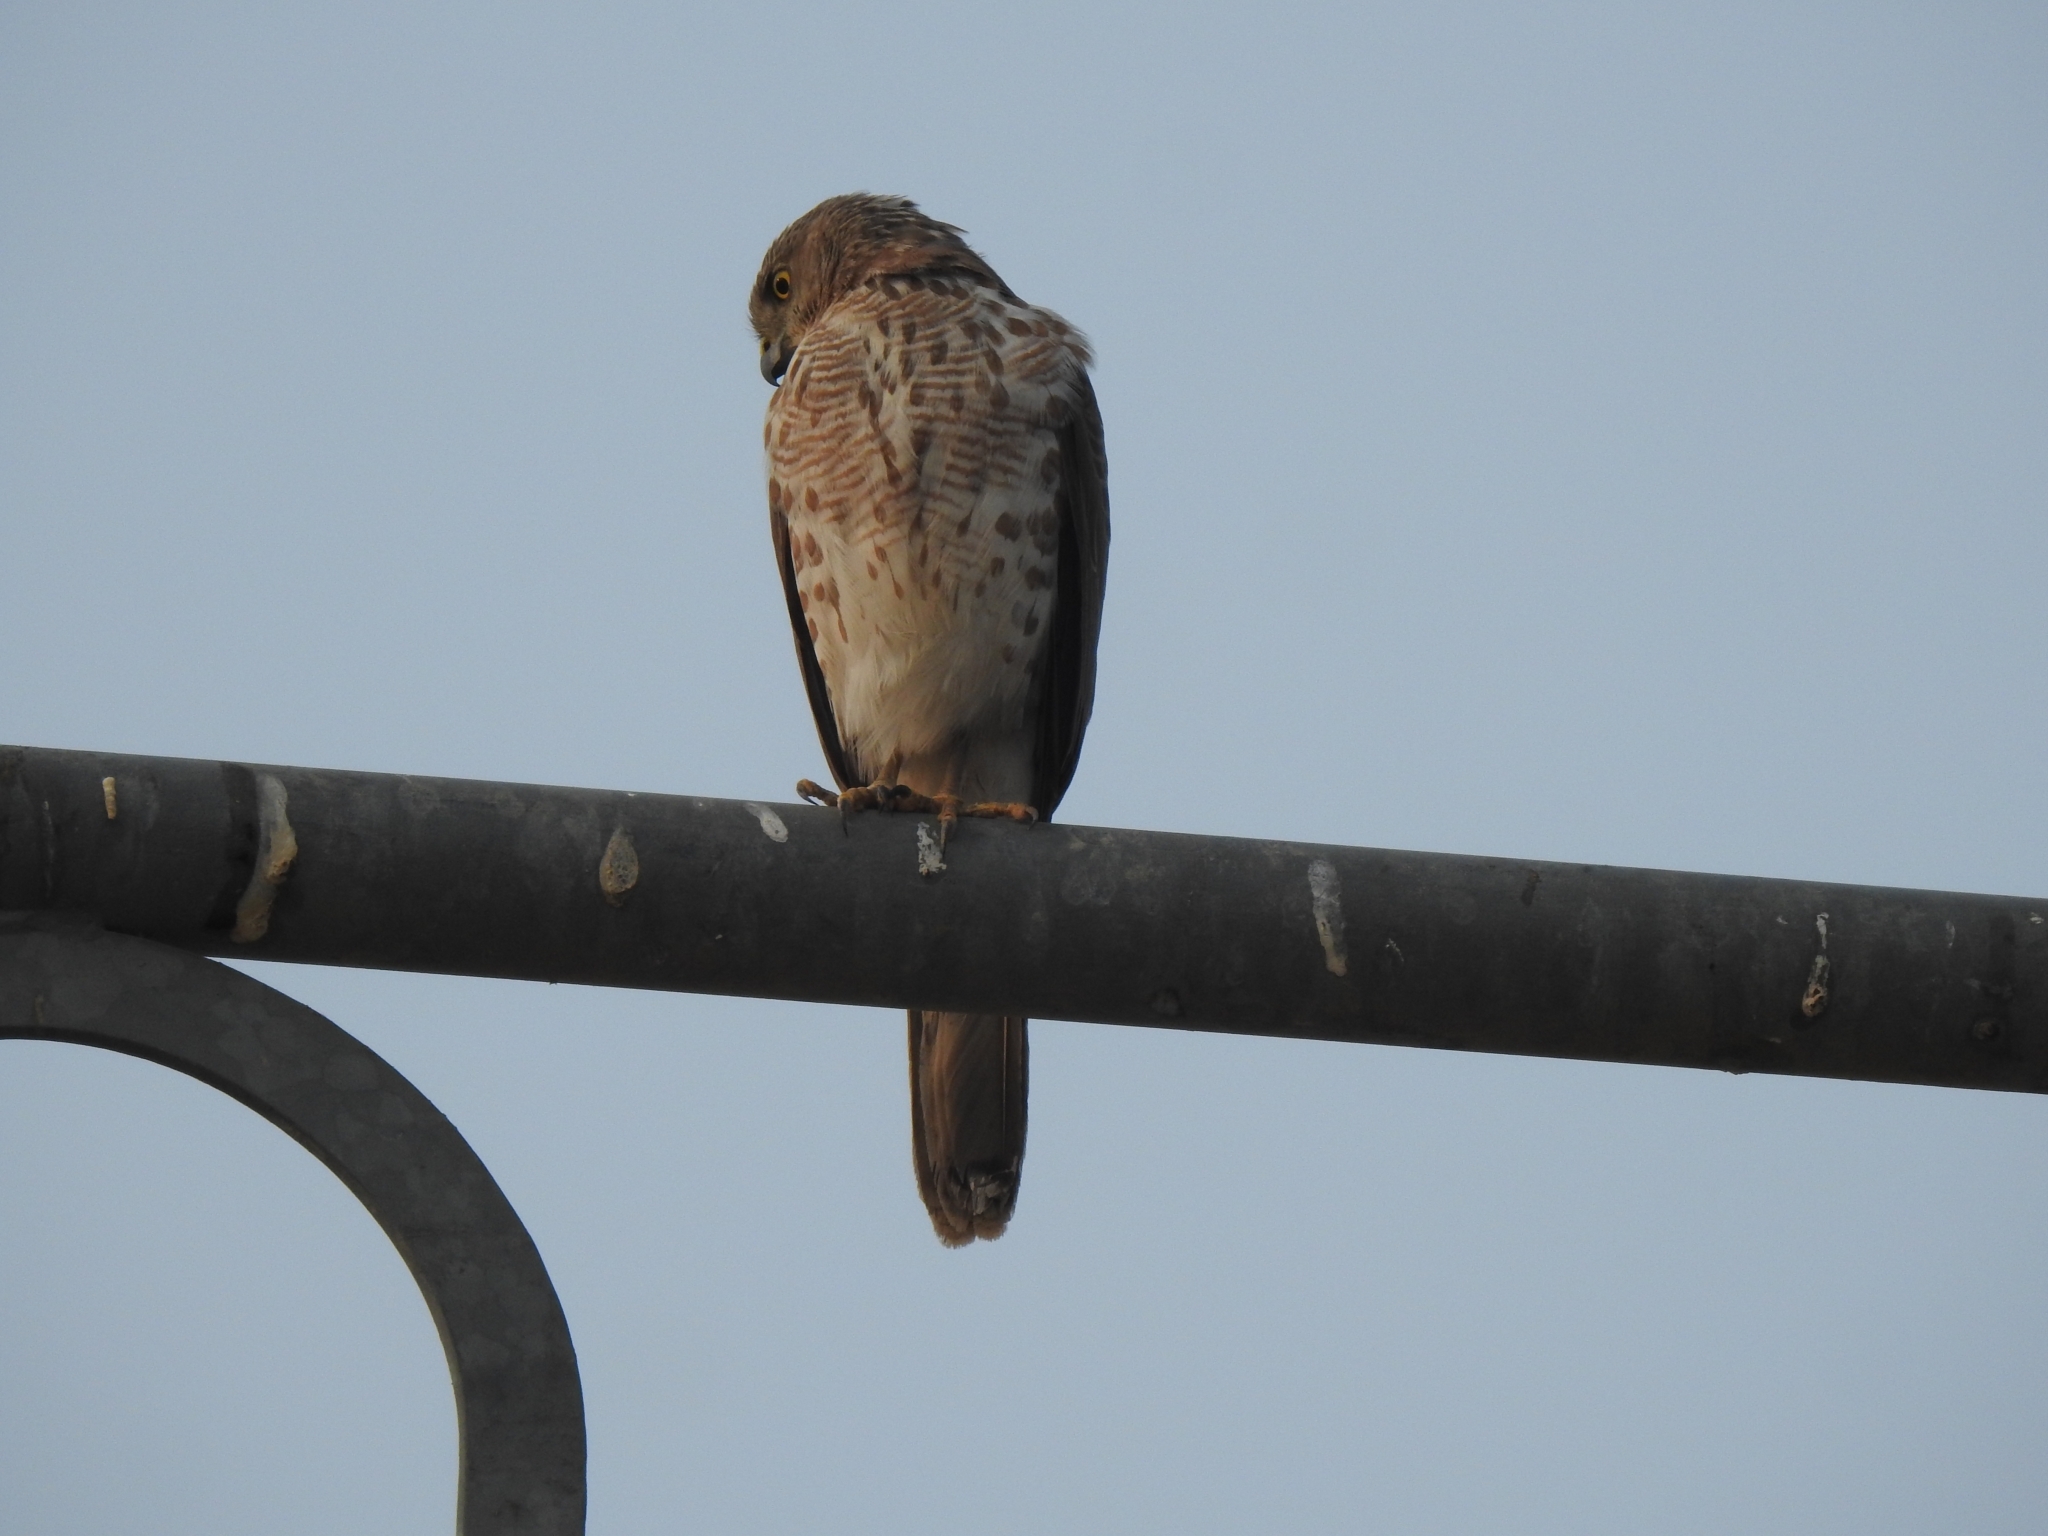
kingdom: Animalia
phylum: Chordata
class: Aves
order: Accipitriformes
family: Accipitridae
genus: Accipiter
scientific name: Accipiter badius
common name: Shikra
